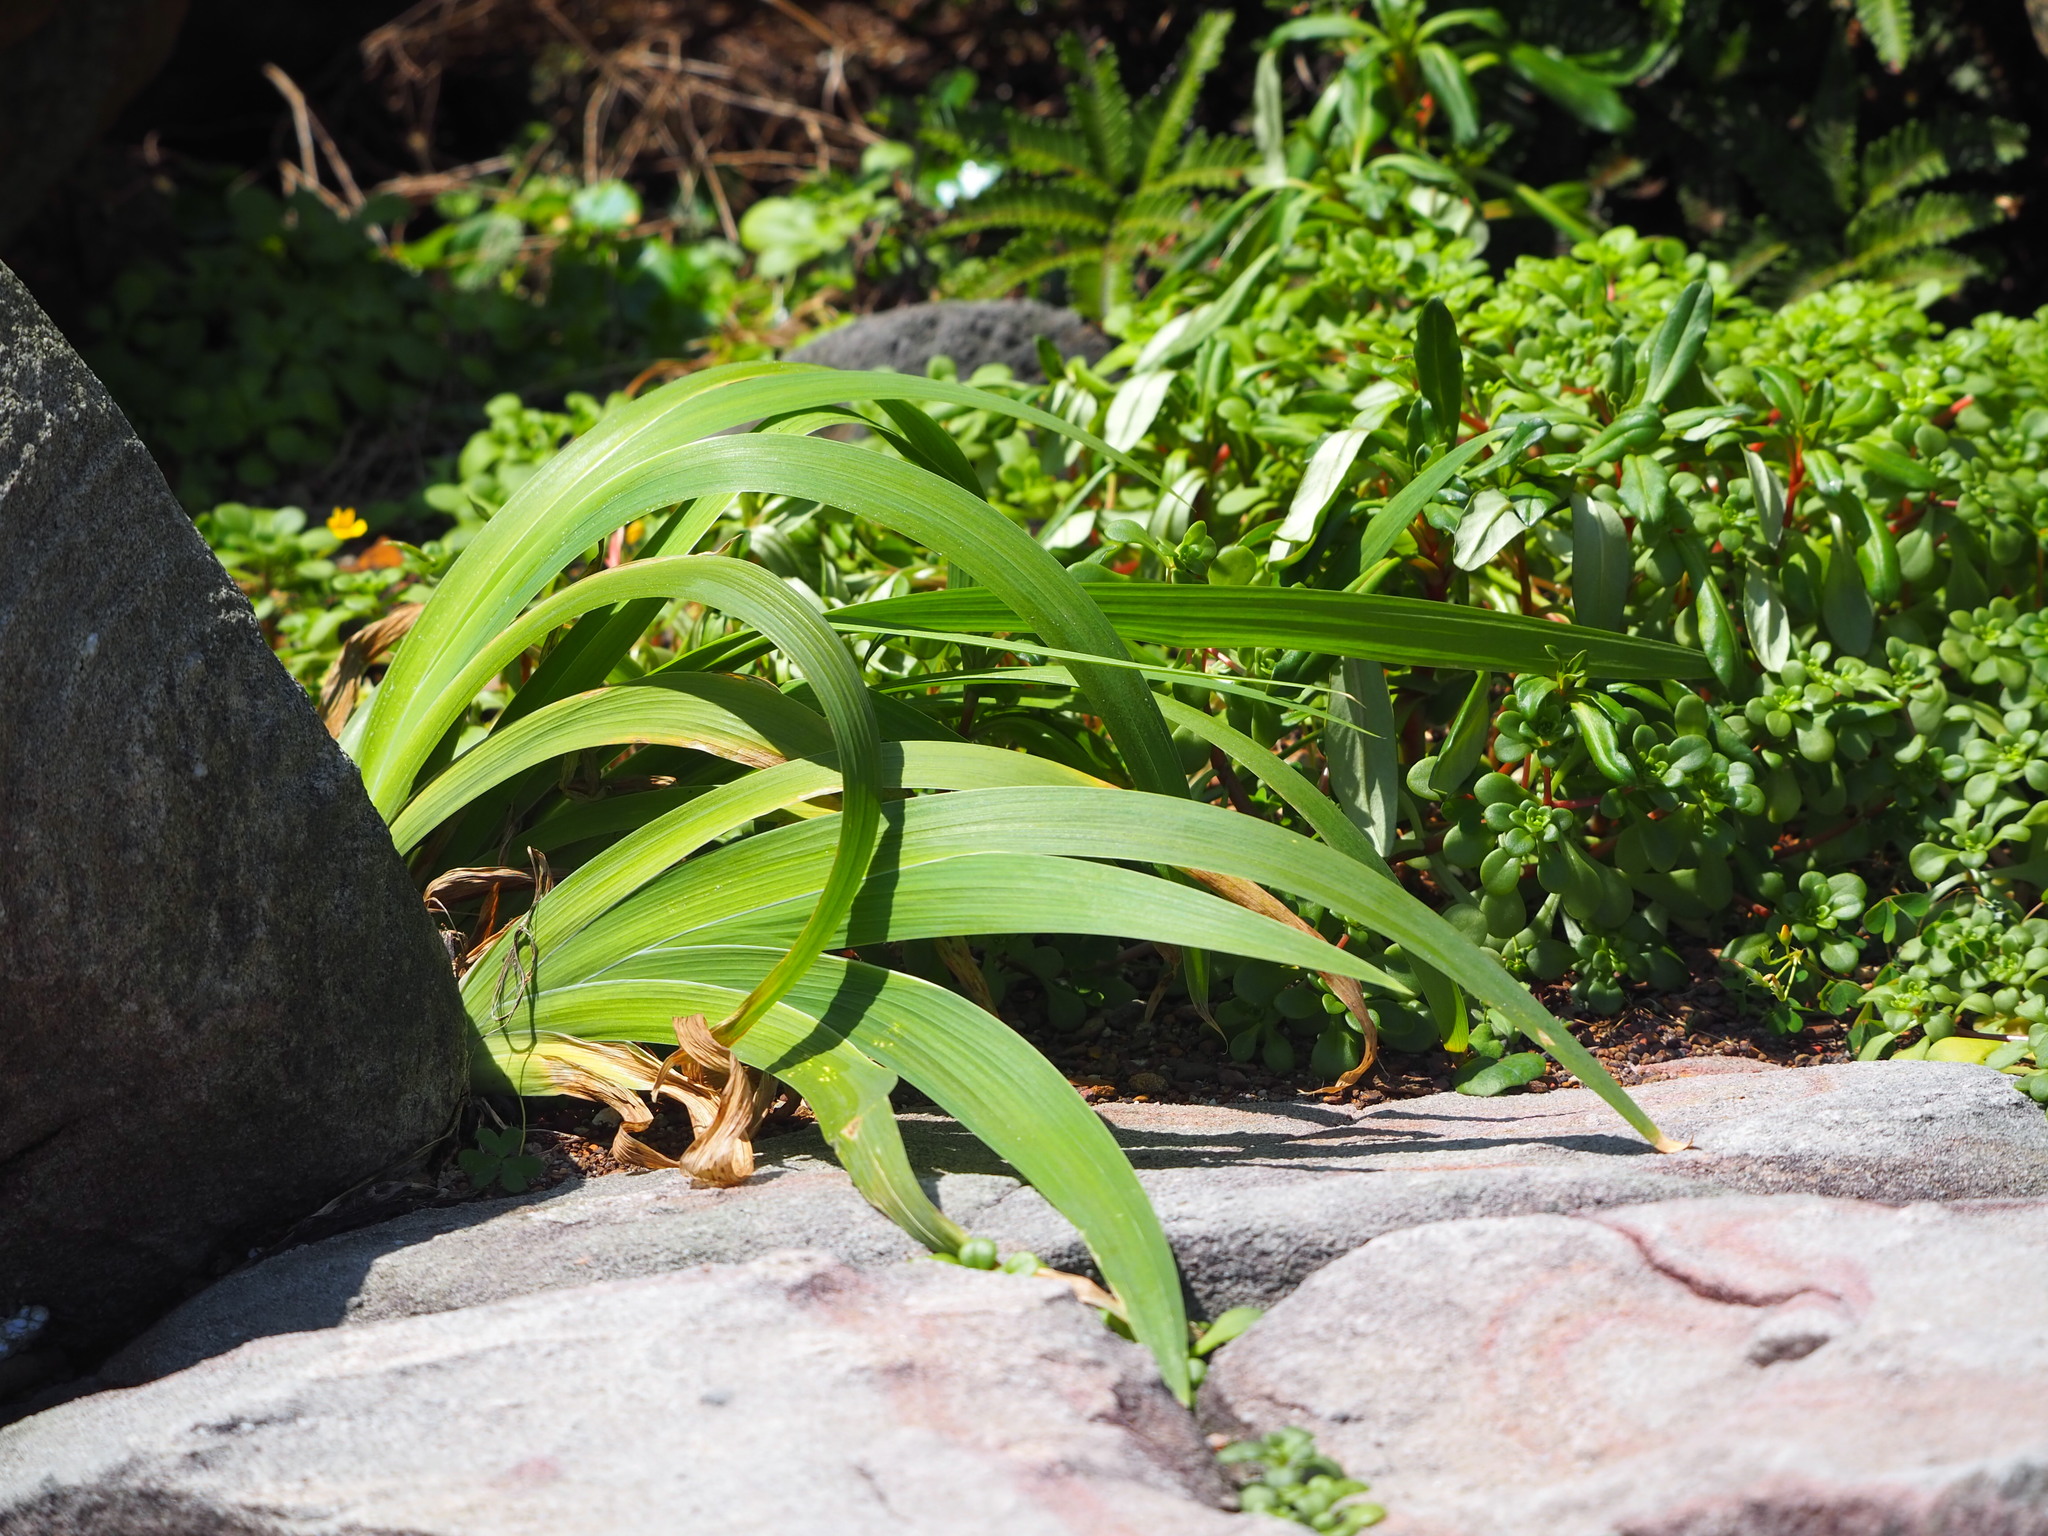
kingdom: Plantae
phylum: Tracheophyta
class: Liliopsida
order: Asparagales
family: Iridaceae
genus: Iris
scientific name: Iris domestica
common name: Belamcanda
